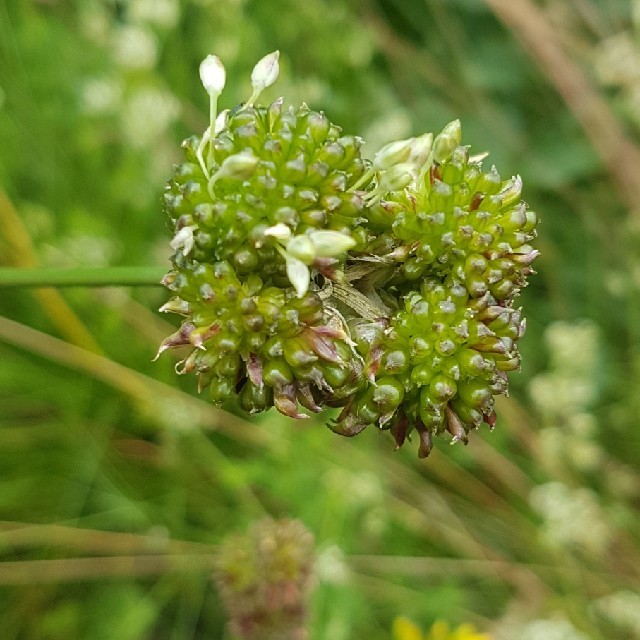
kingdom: Plantae
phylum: Tracheophyta
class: Liliopsida
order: Asparagales
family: Amaryllidaceae
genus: Allium
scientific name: Allium vineale
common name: Crow garlic
